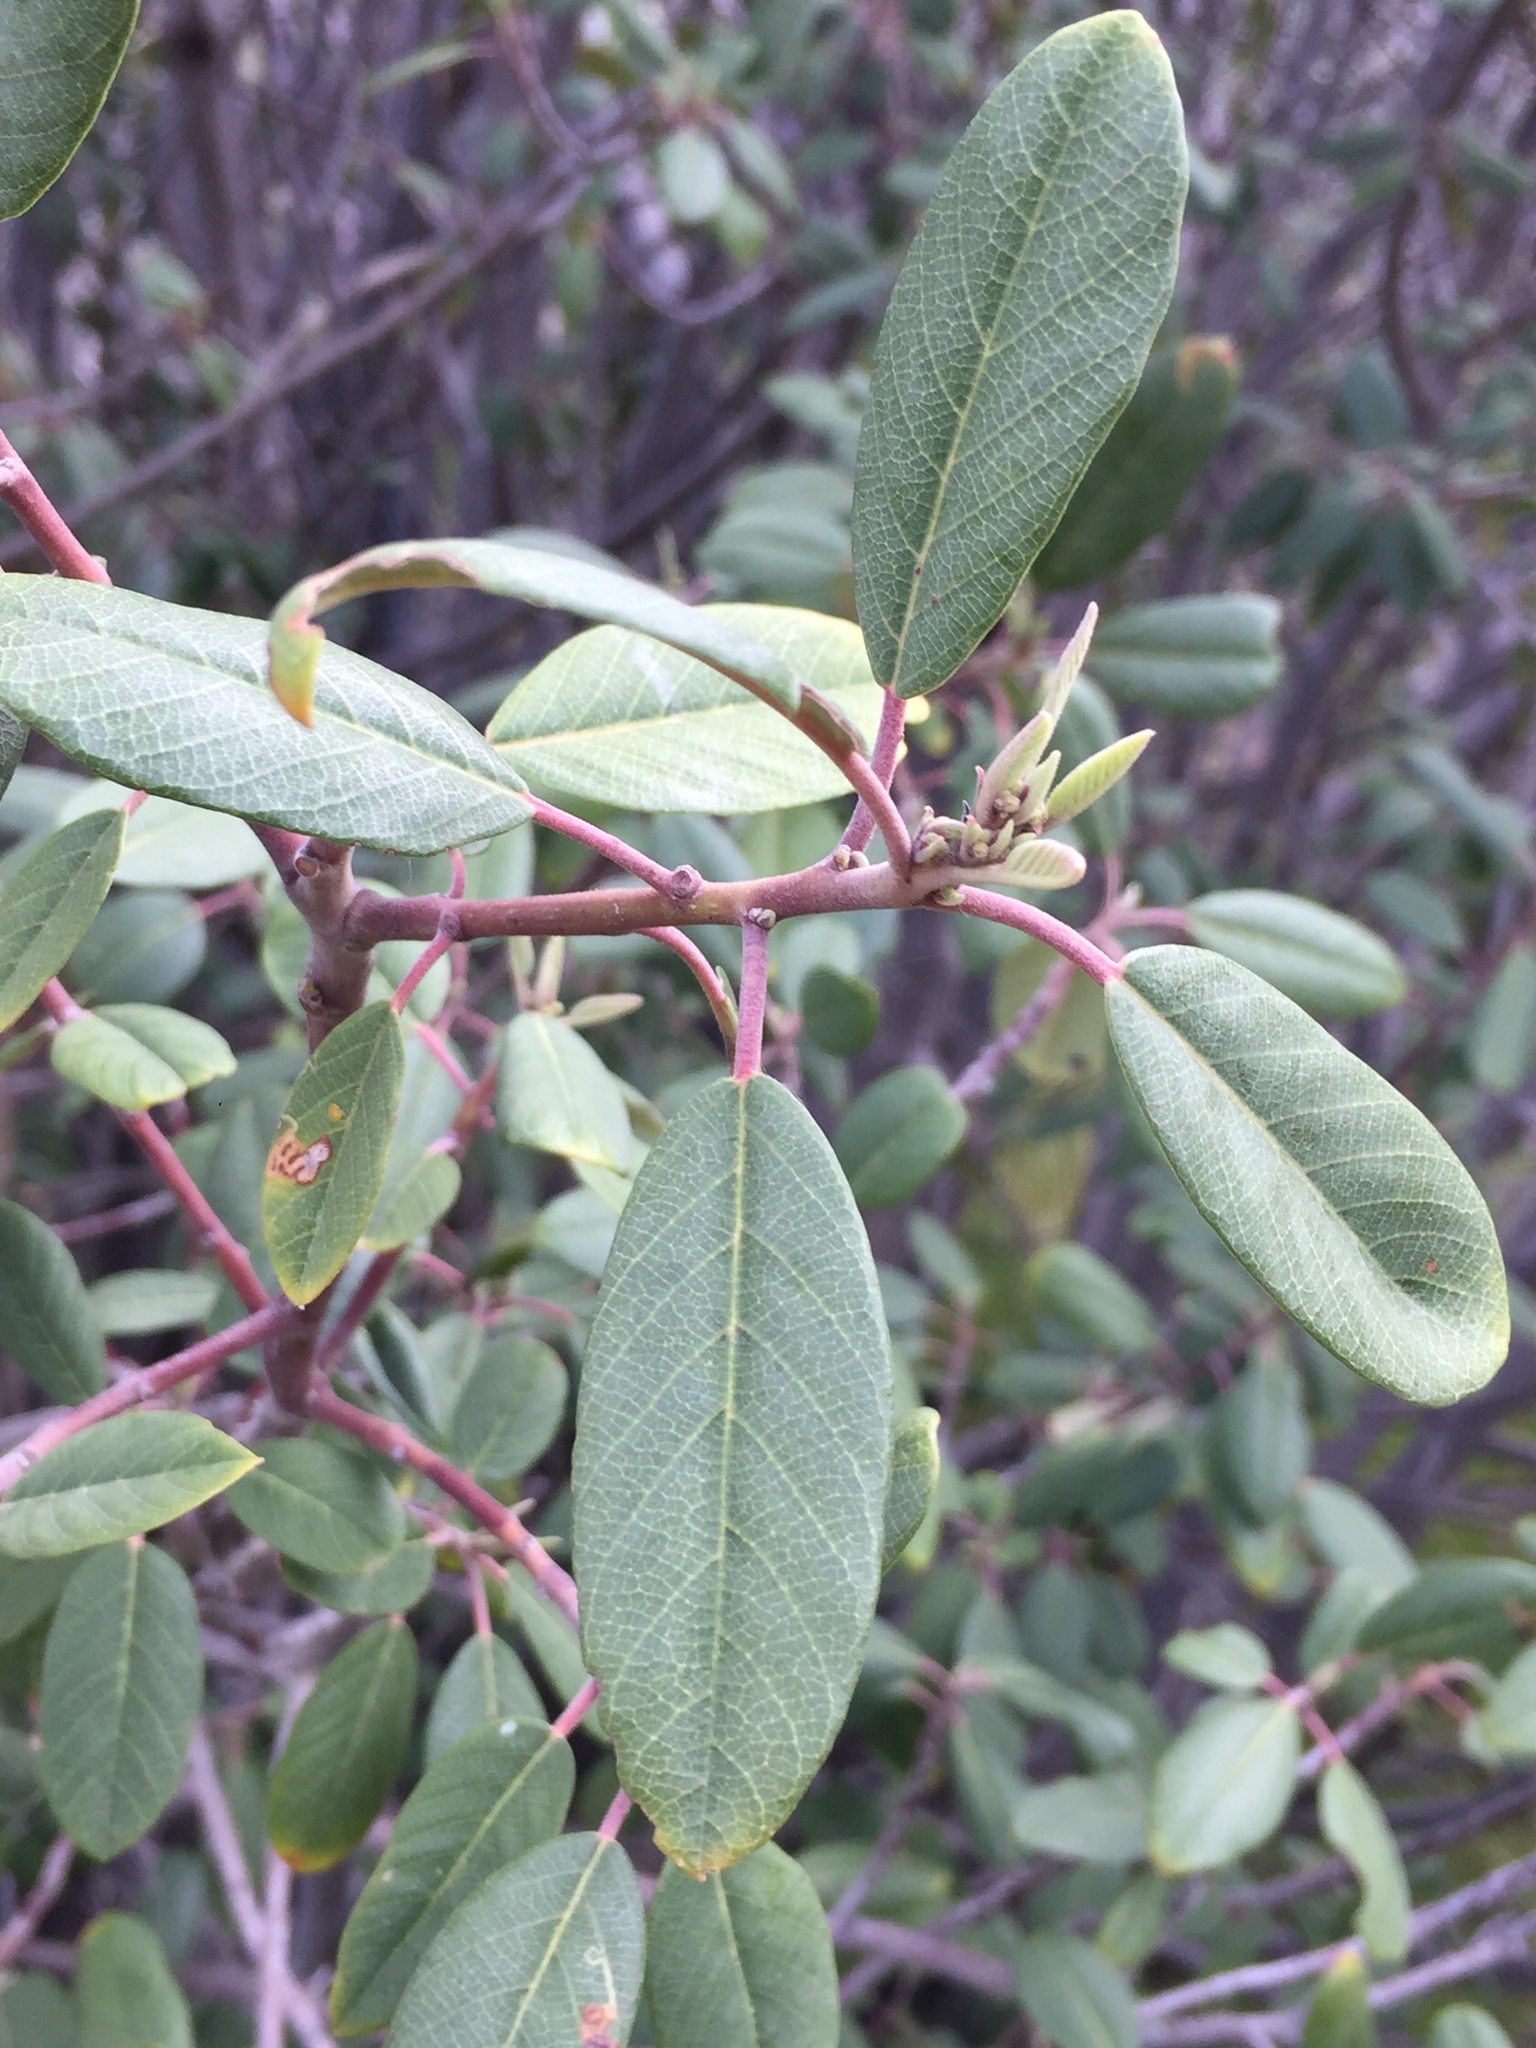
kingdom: Plantae
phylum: Tracheophyta
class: Magnoliopsida
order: Rosales
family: Rhamnaceae
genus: Frangula
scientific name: Frangula californica
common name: California buckthorn
